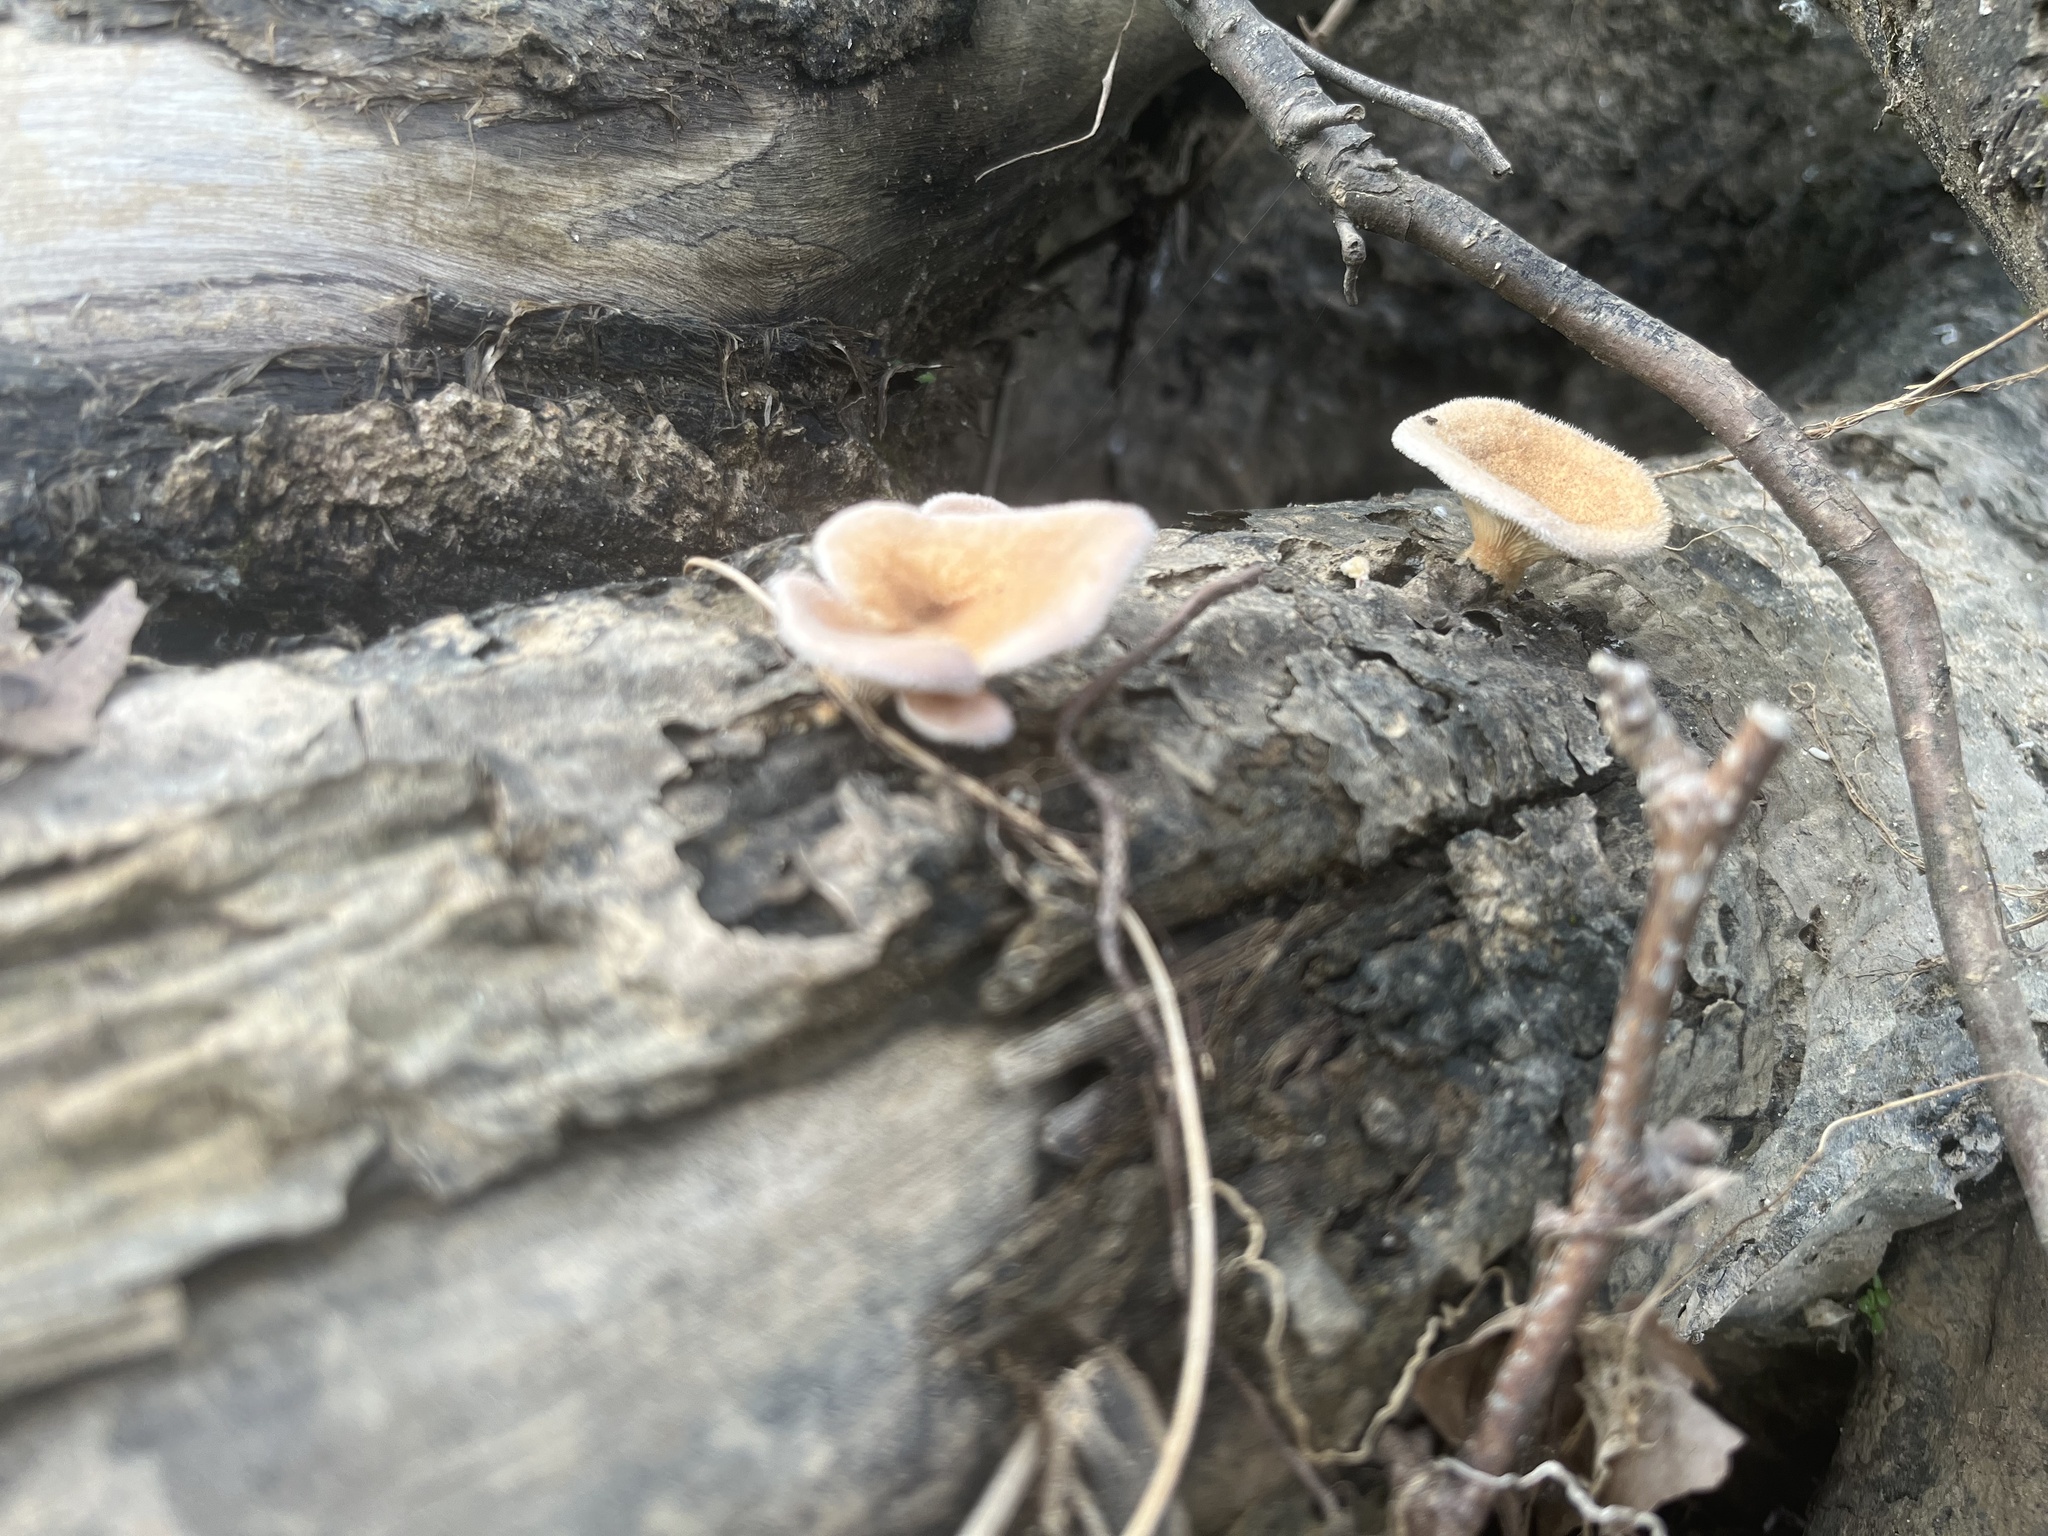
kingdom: Fungi
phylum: Basidiomycota
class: Agaricomycetes
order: Polyporales
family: Panaceae
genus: Panus
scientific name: Panus neostrigosus
